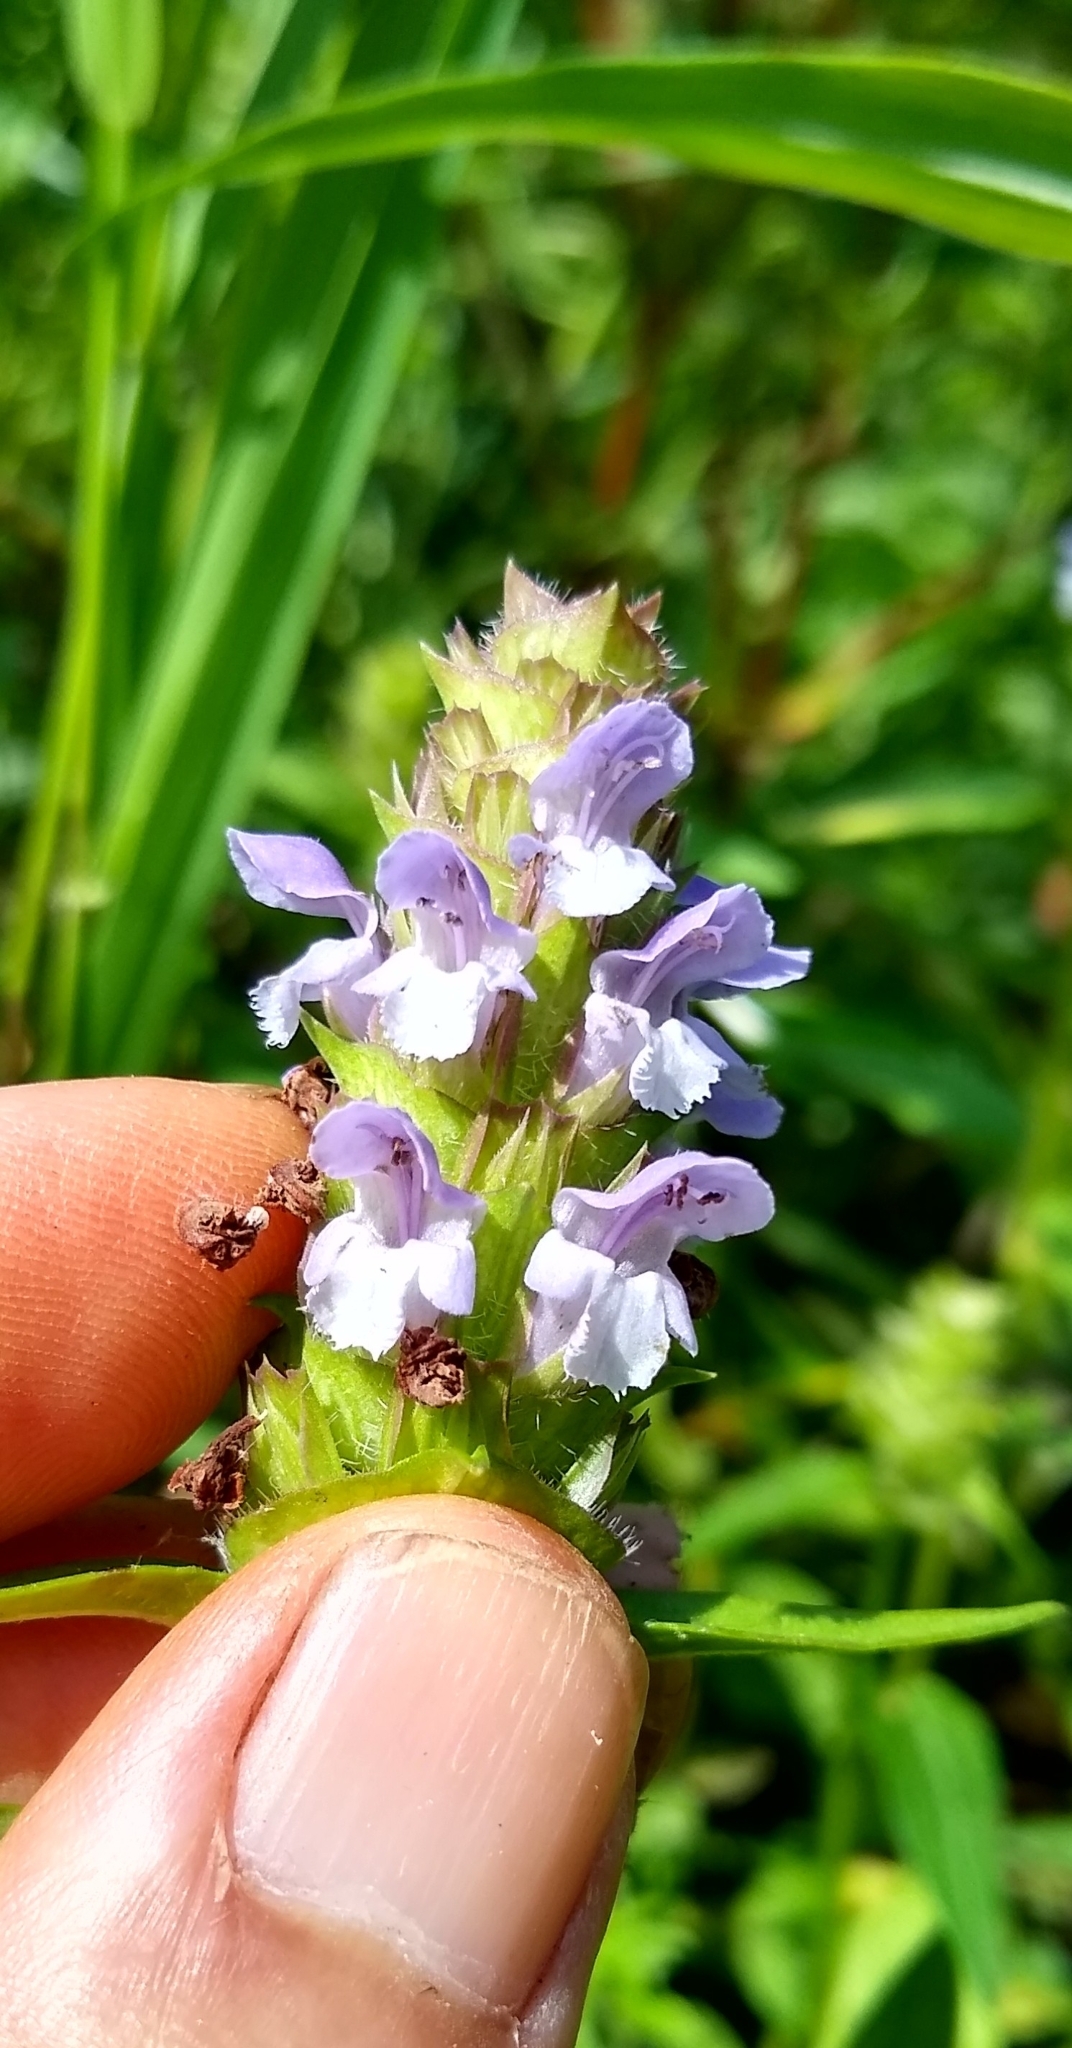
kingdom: Plantae
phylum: Tracheophyta
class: Magnoliopsida
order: Lamiales
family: Lamiaceae
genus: Prunella
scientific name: Prunella vulgaris
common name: Heal-all
